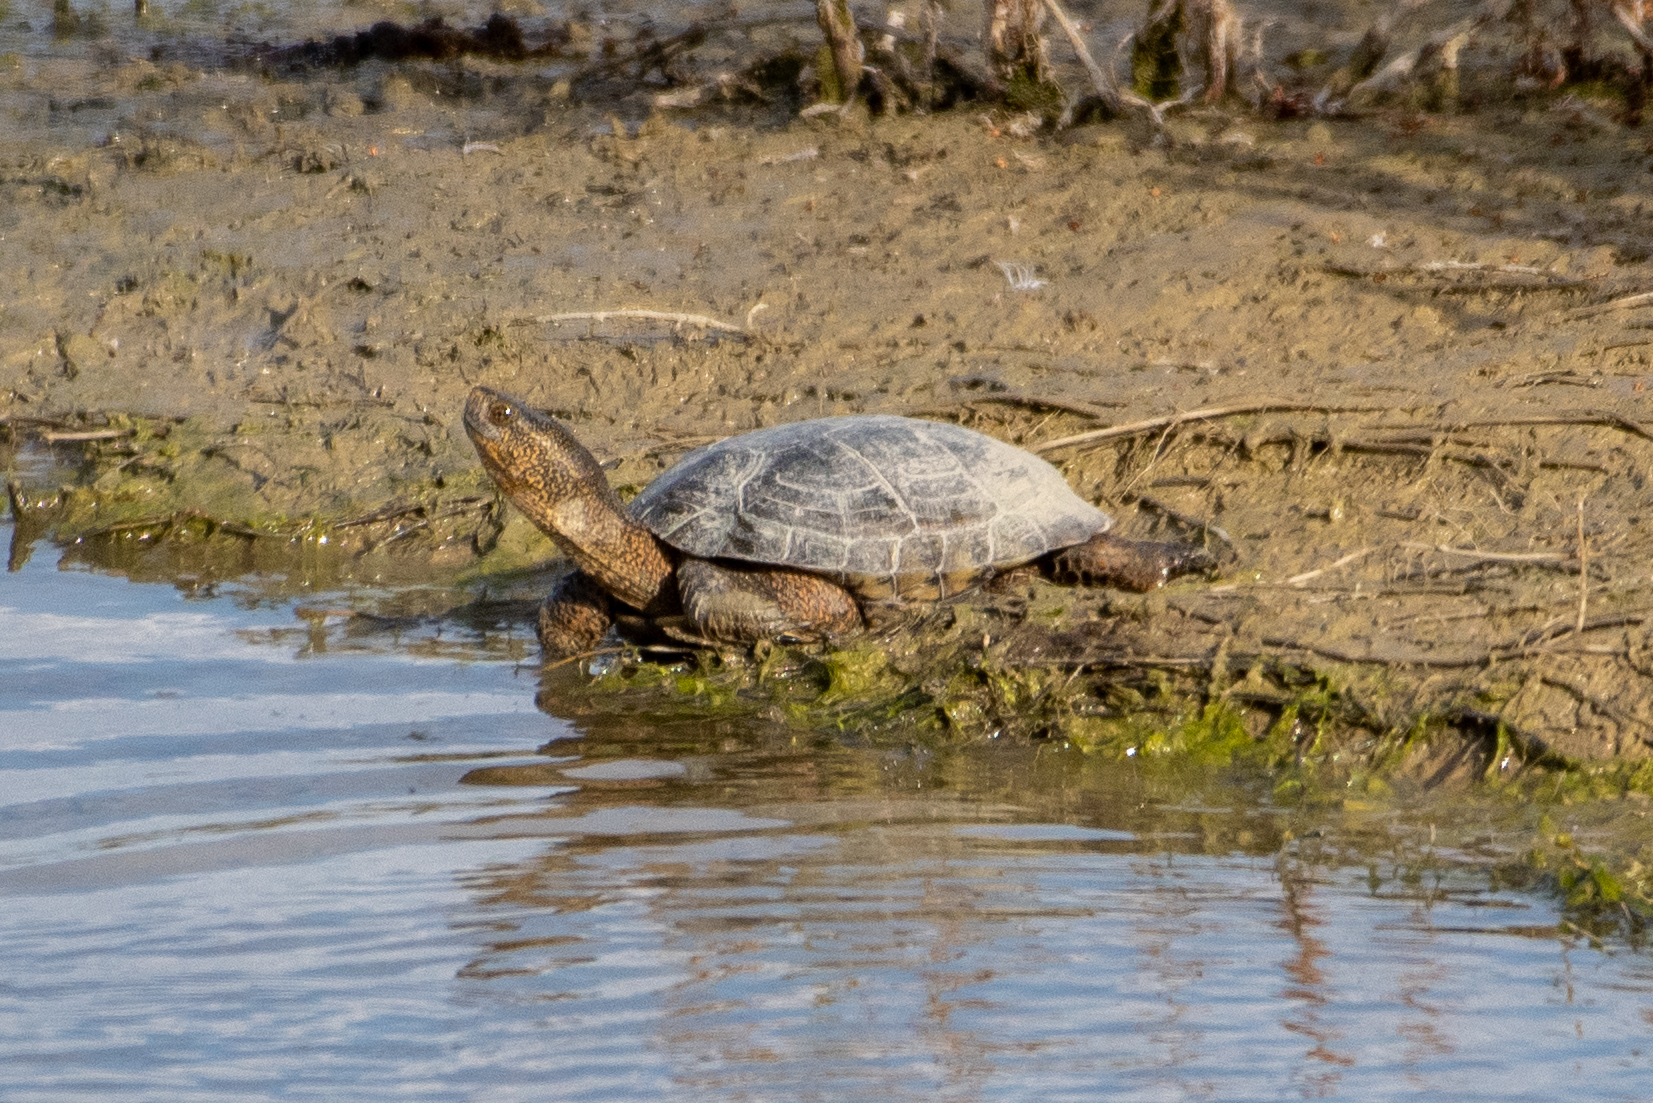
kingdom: Animalia
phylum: Chordata
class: Testudines
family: Emydidae
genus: Actinemys
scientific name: Actinemys marmorata
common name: Western pond turtle
